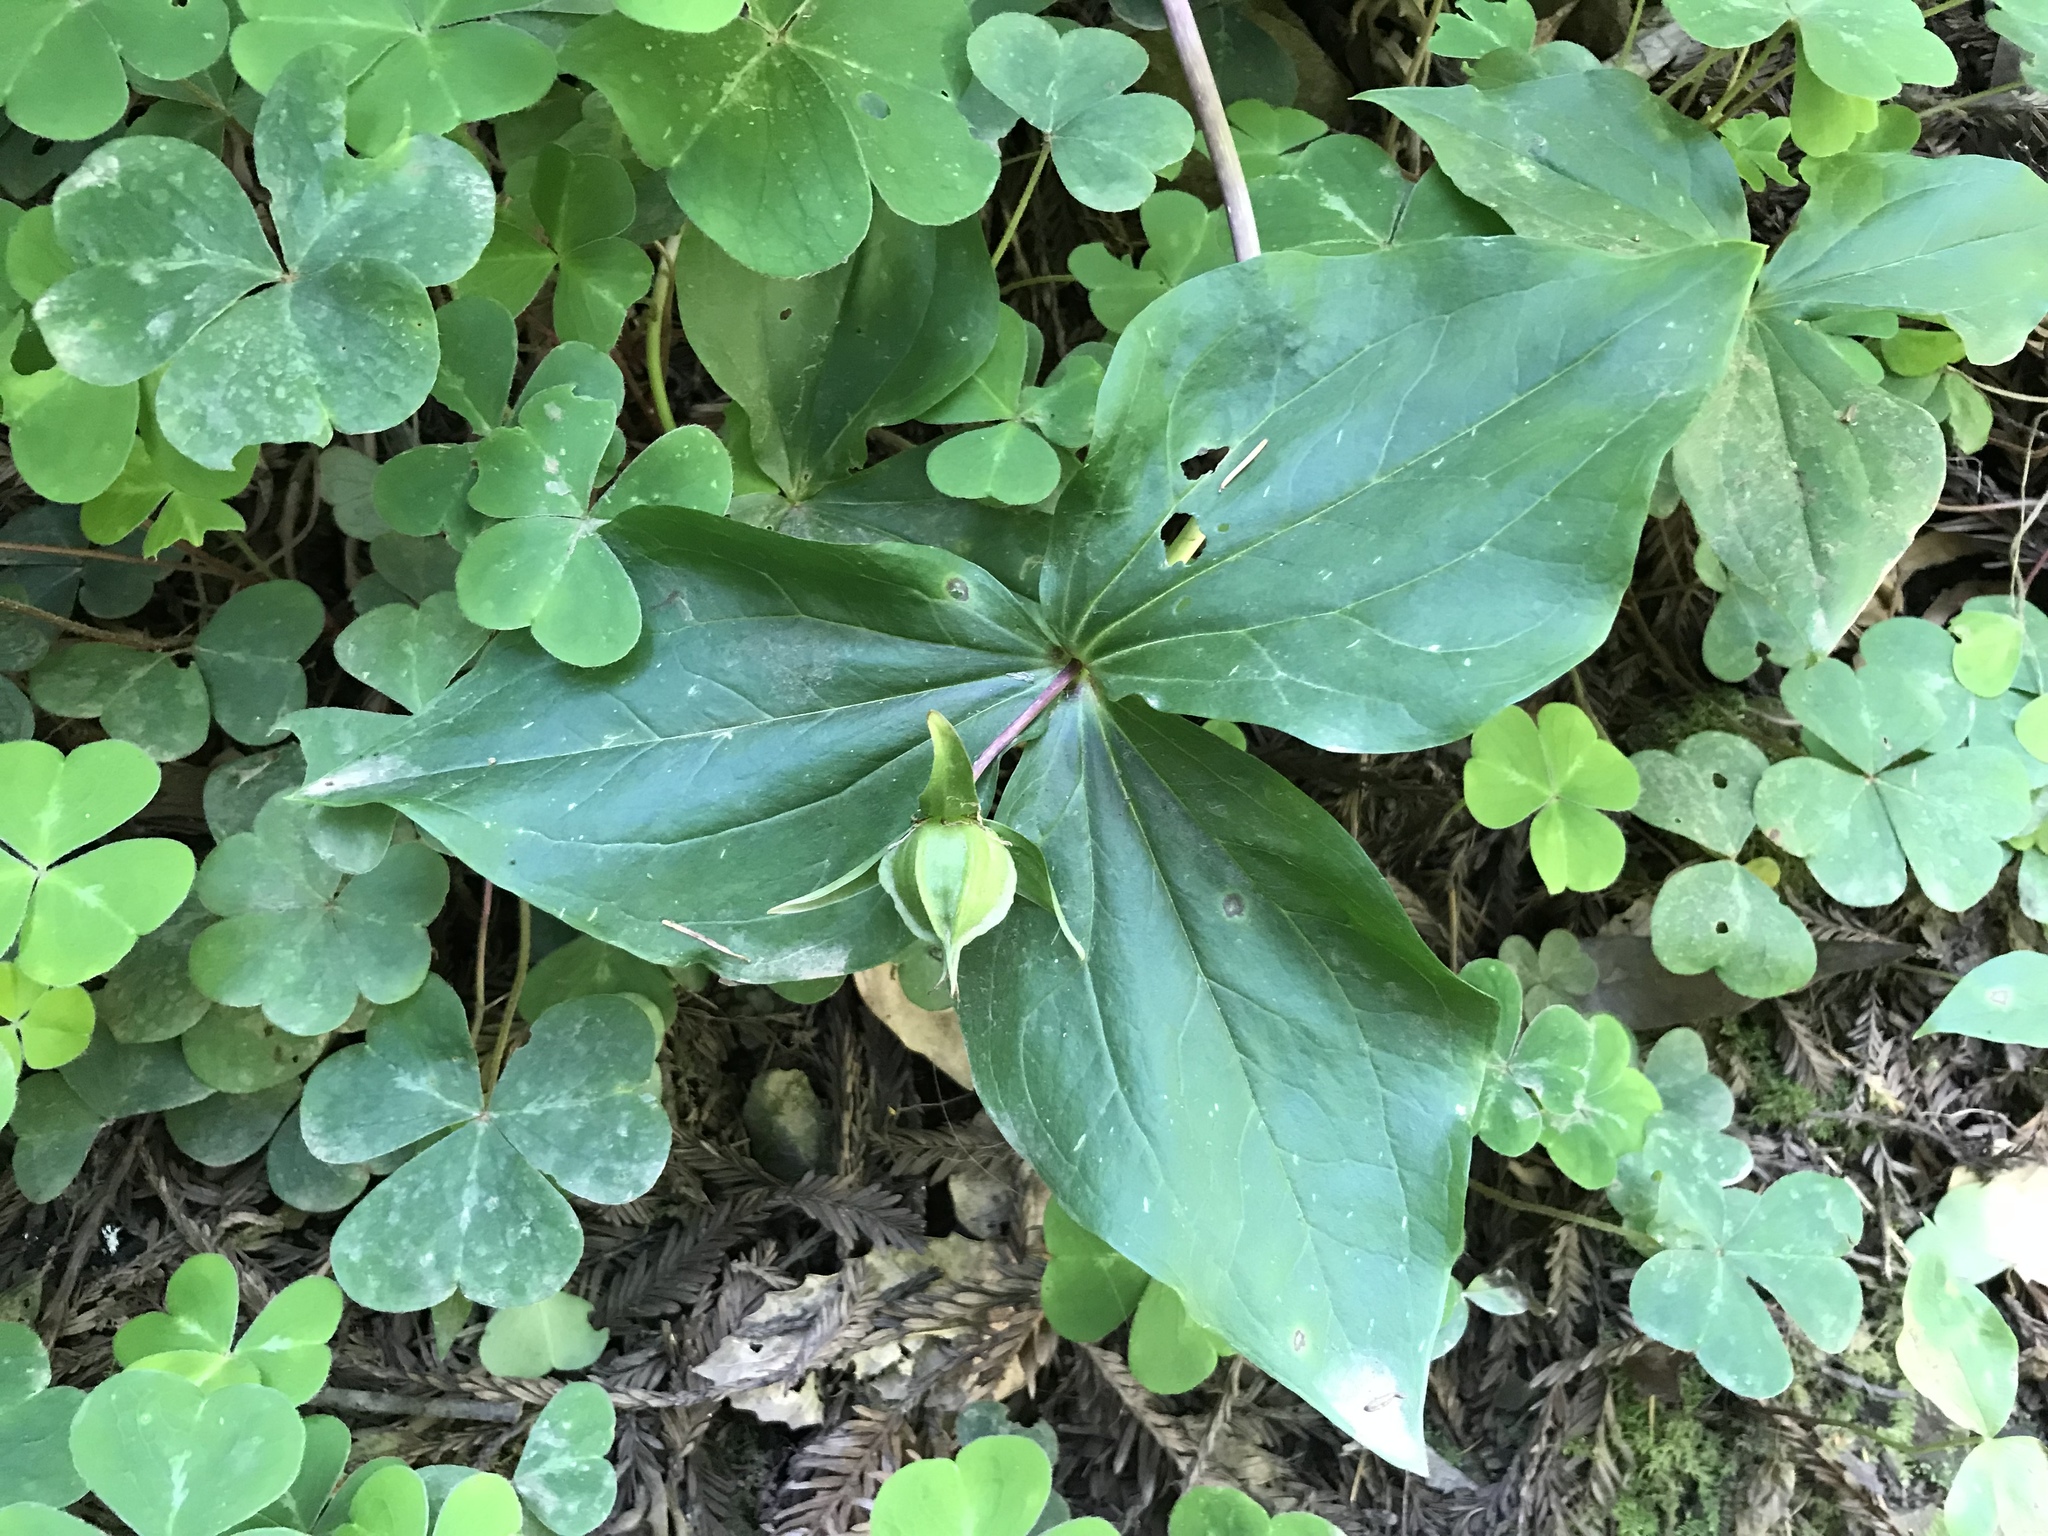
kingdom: Plantae
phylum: Tracheophyta
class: Liliopsida
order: Liliales
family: Melanthiaceae
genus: Trillium
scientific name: Trillium ovatum
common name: Pacific trillium
